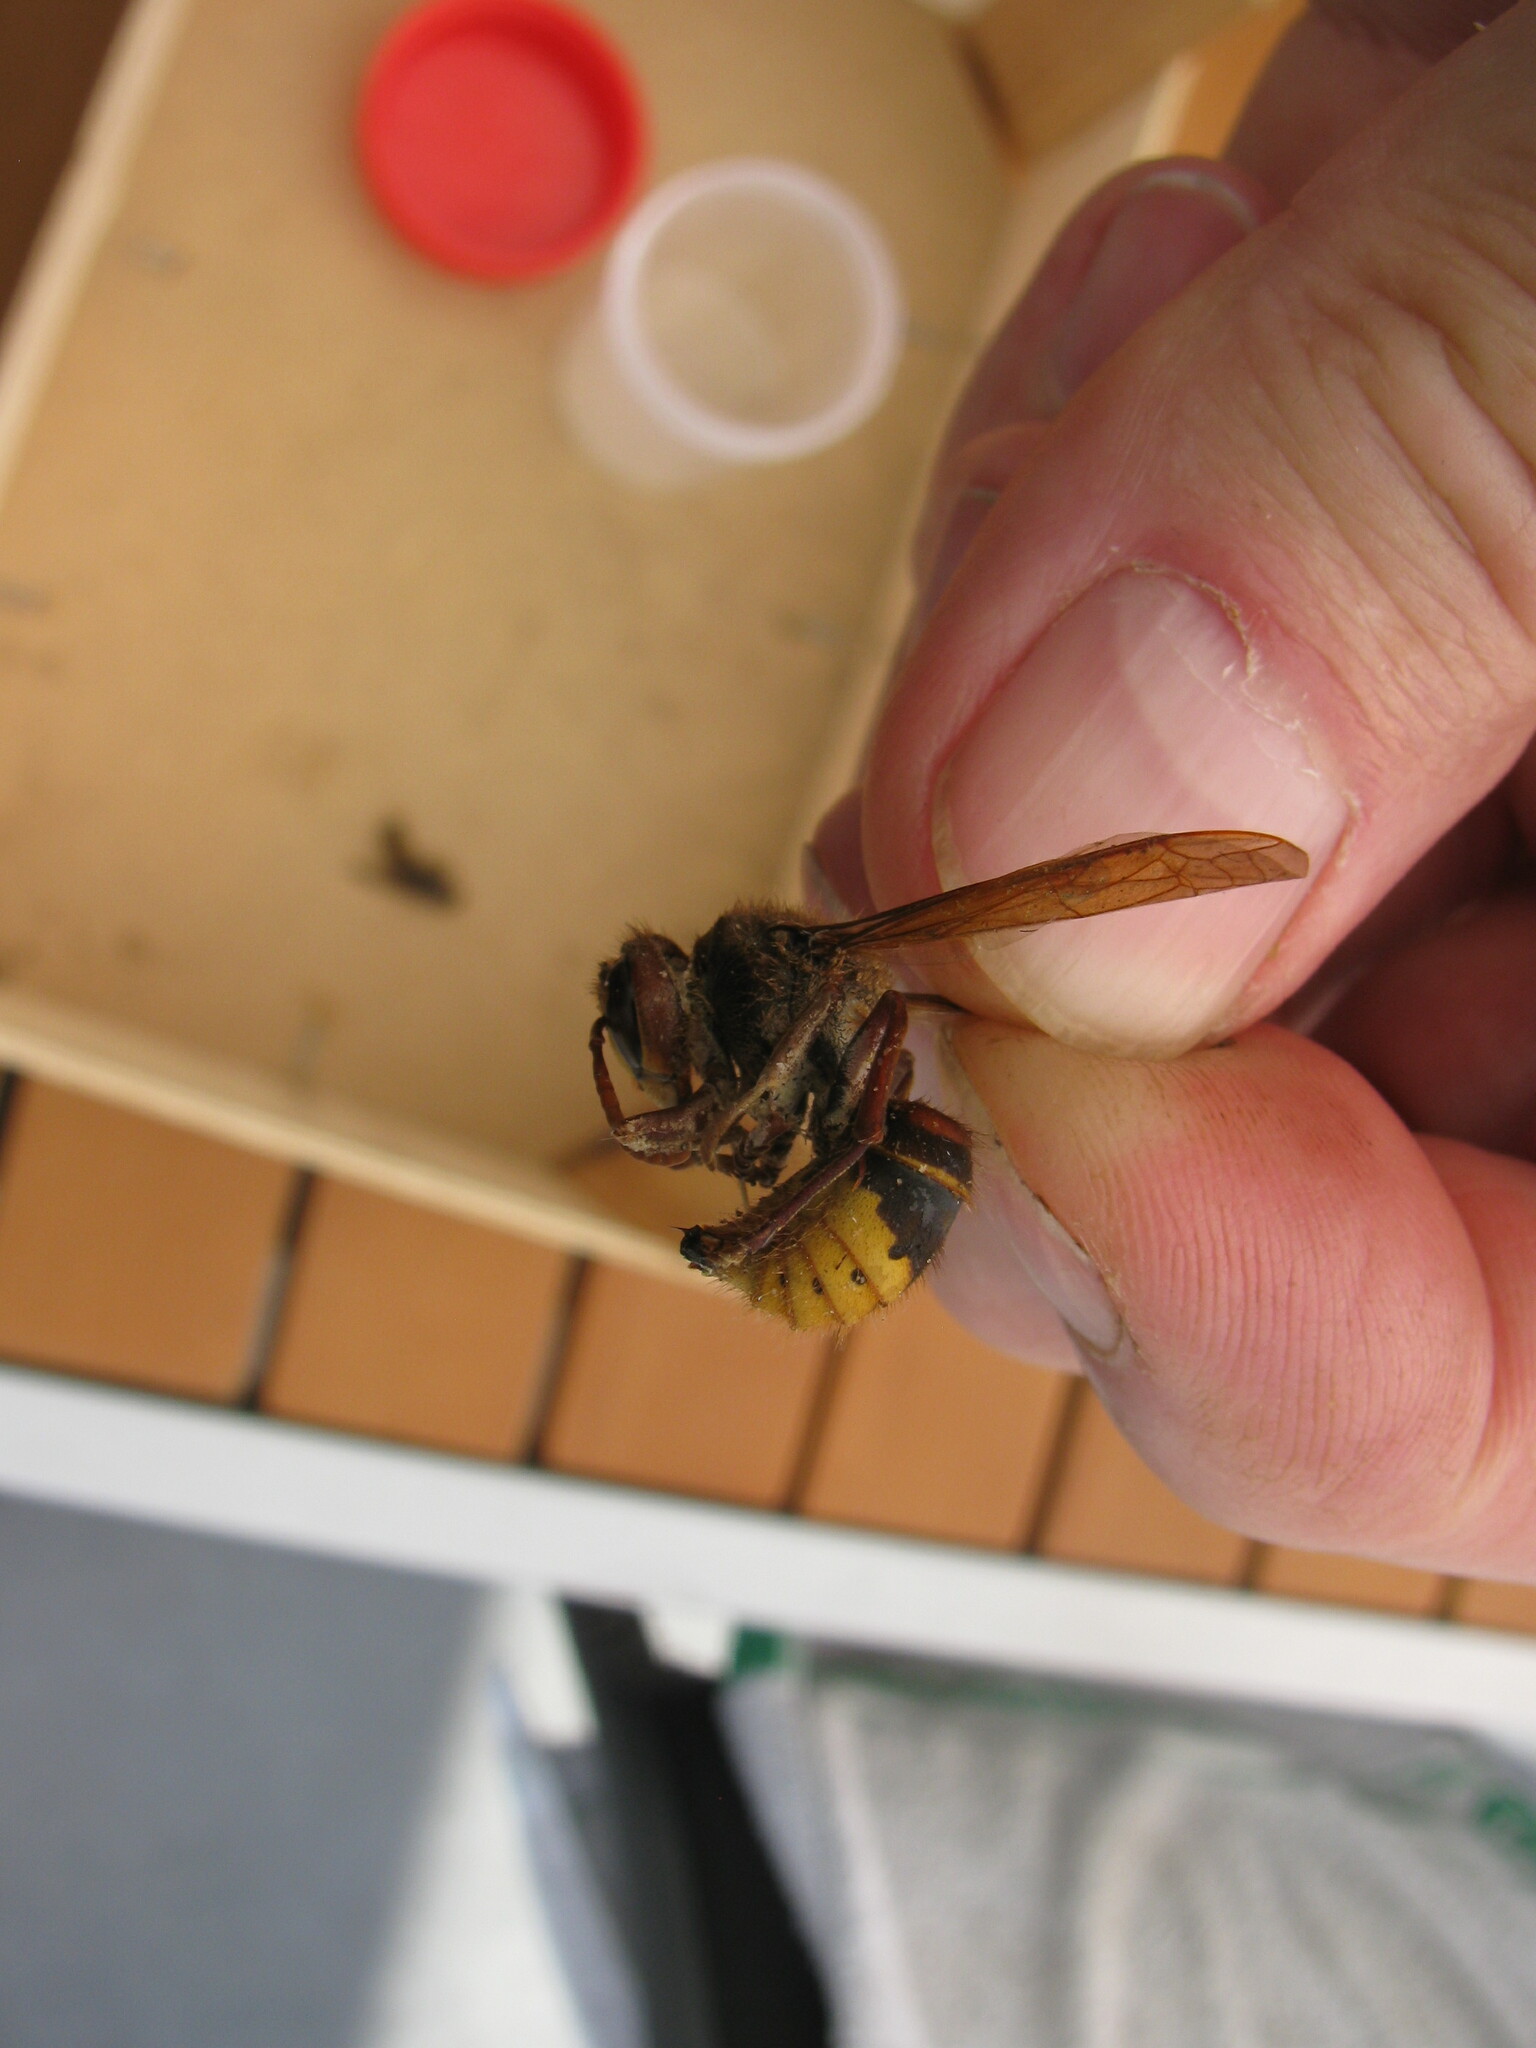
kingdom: Animalia
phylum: Arthropoda
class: Insecta
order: Hymenoptera
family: Vespidae
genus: Vespa
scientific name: Vespa crabro
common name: Hornet
